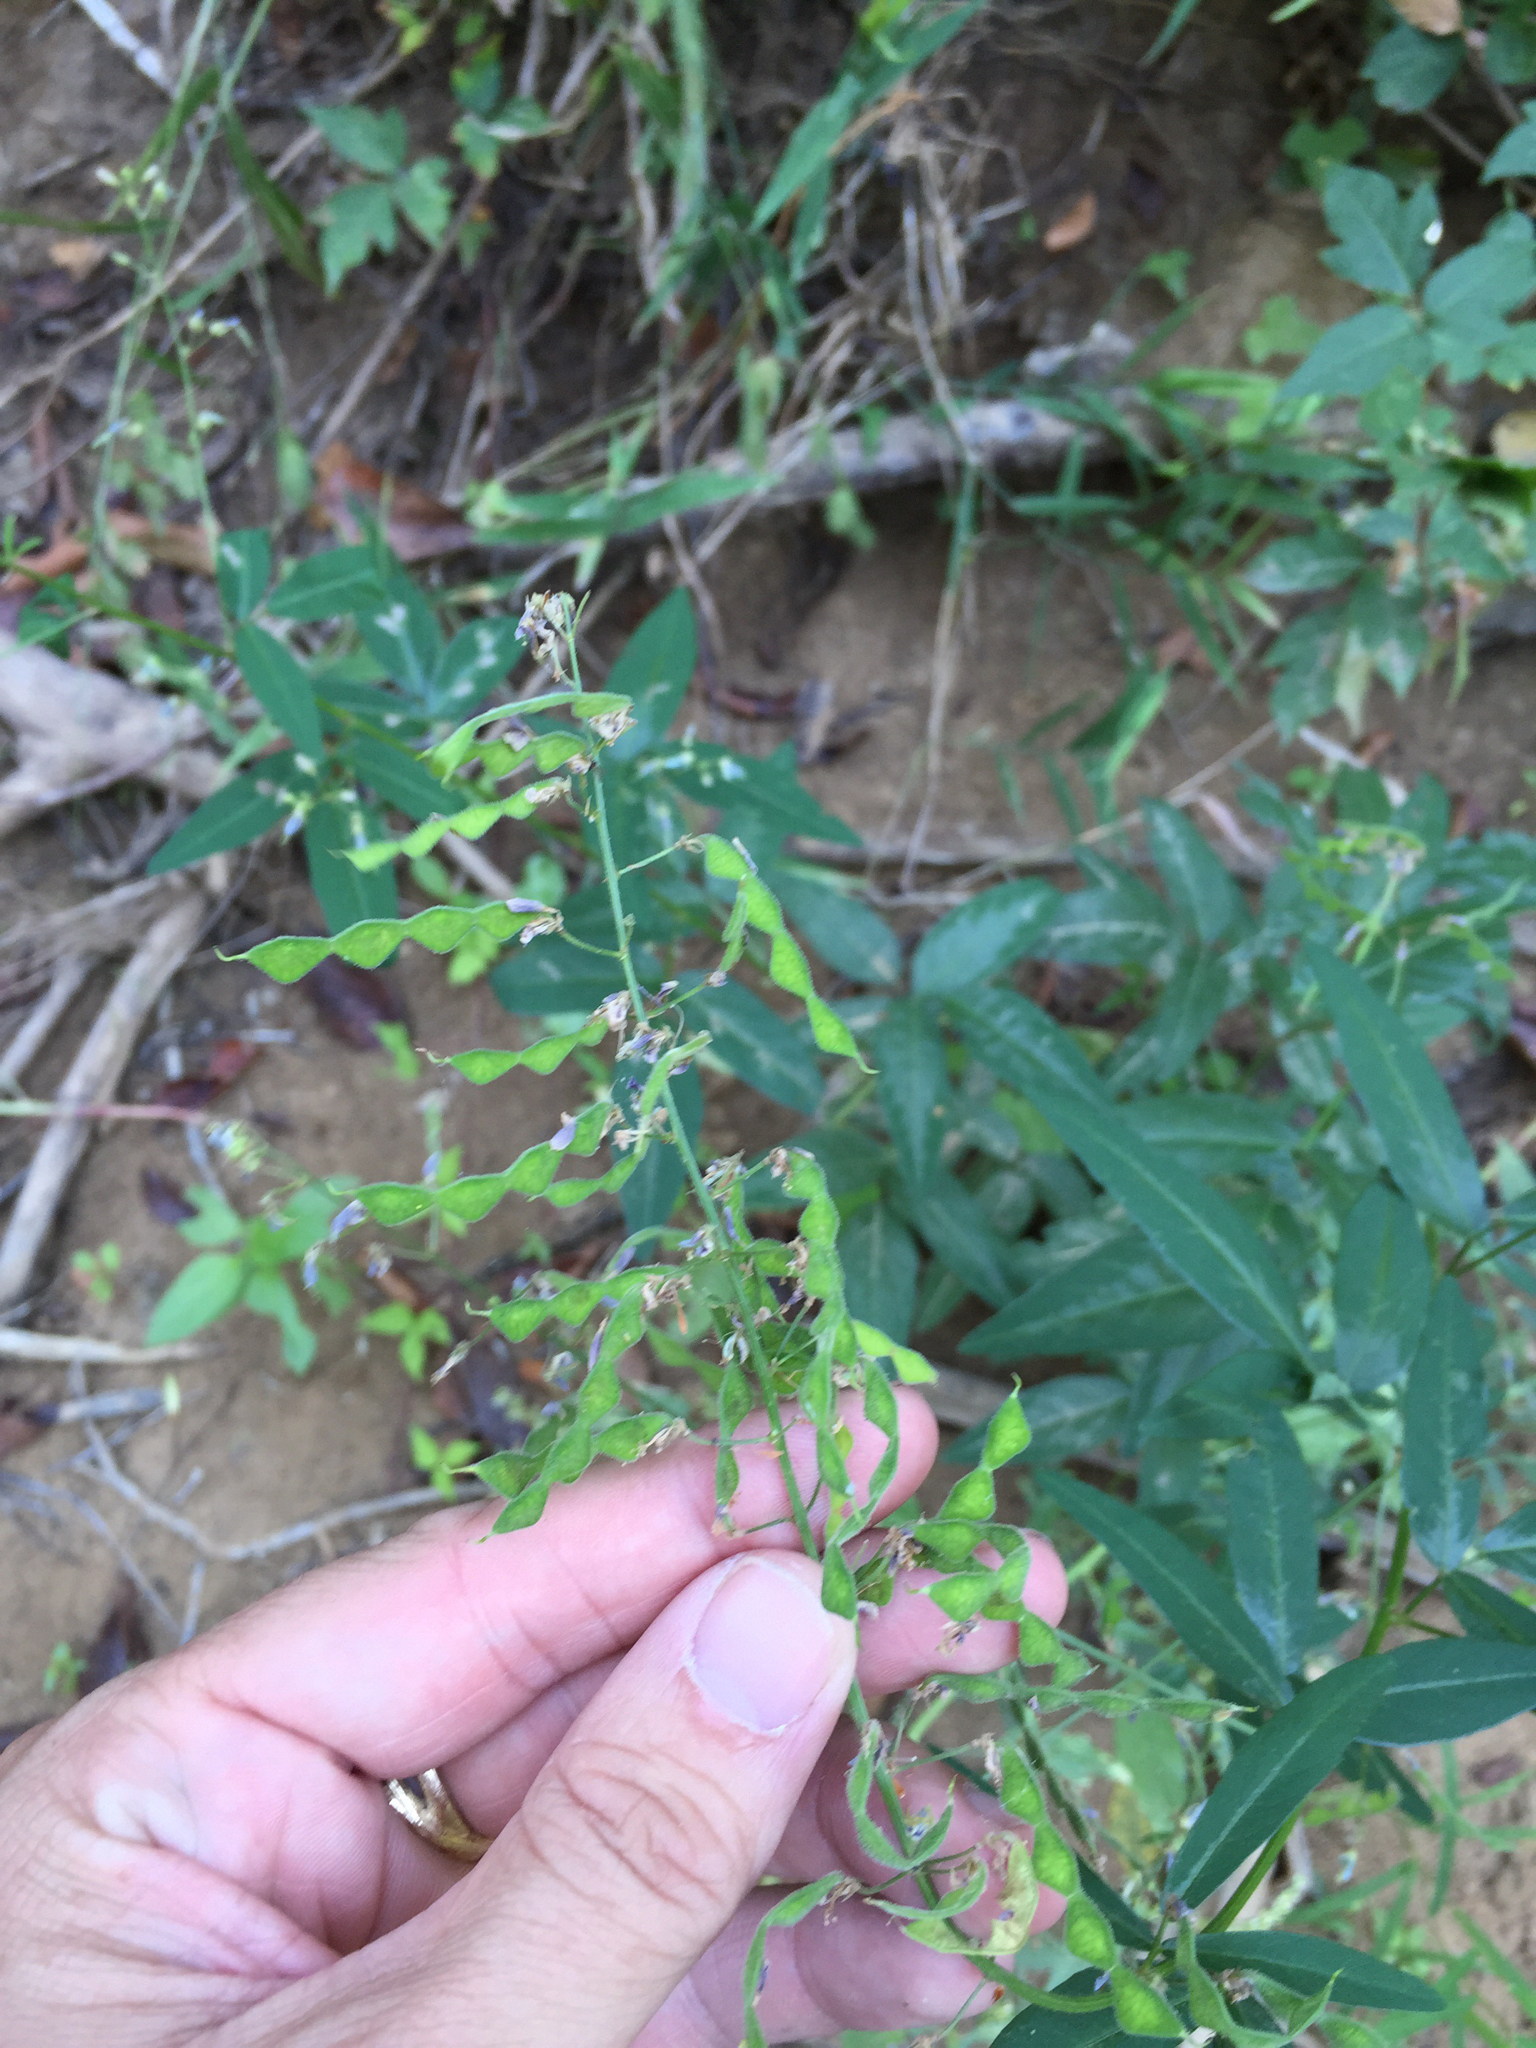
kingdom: Plantae
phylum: Tracheophyta
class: Magnoliopsida
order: Fabales
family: Fabaceae
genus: Desmodium
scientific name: Desmodium paniculatum
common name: Panicled tick-clover
